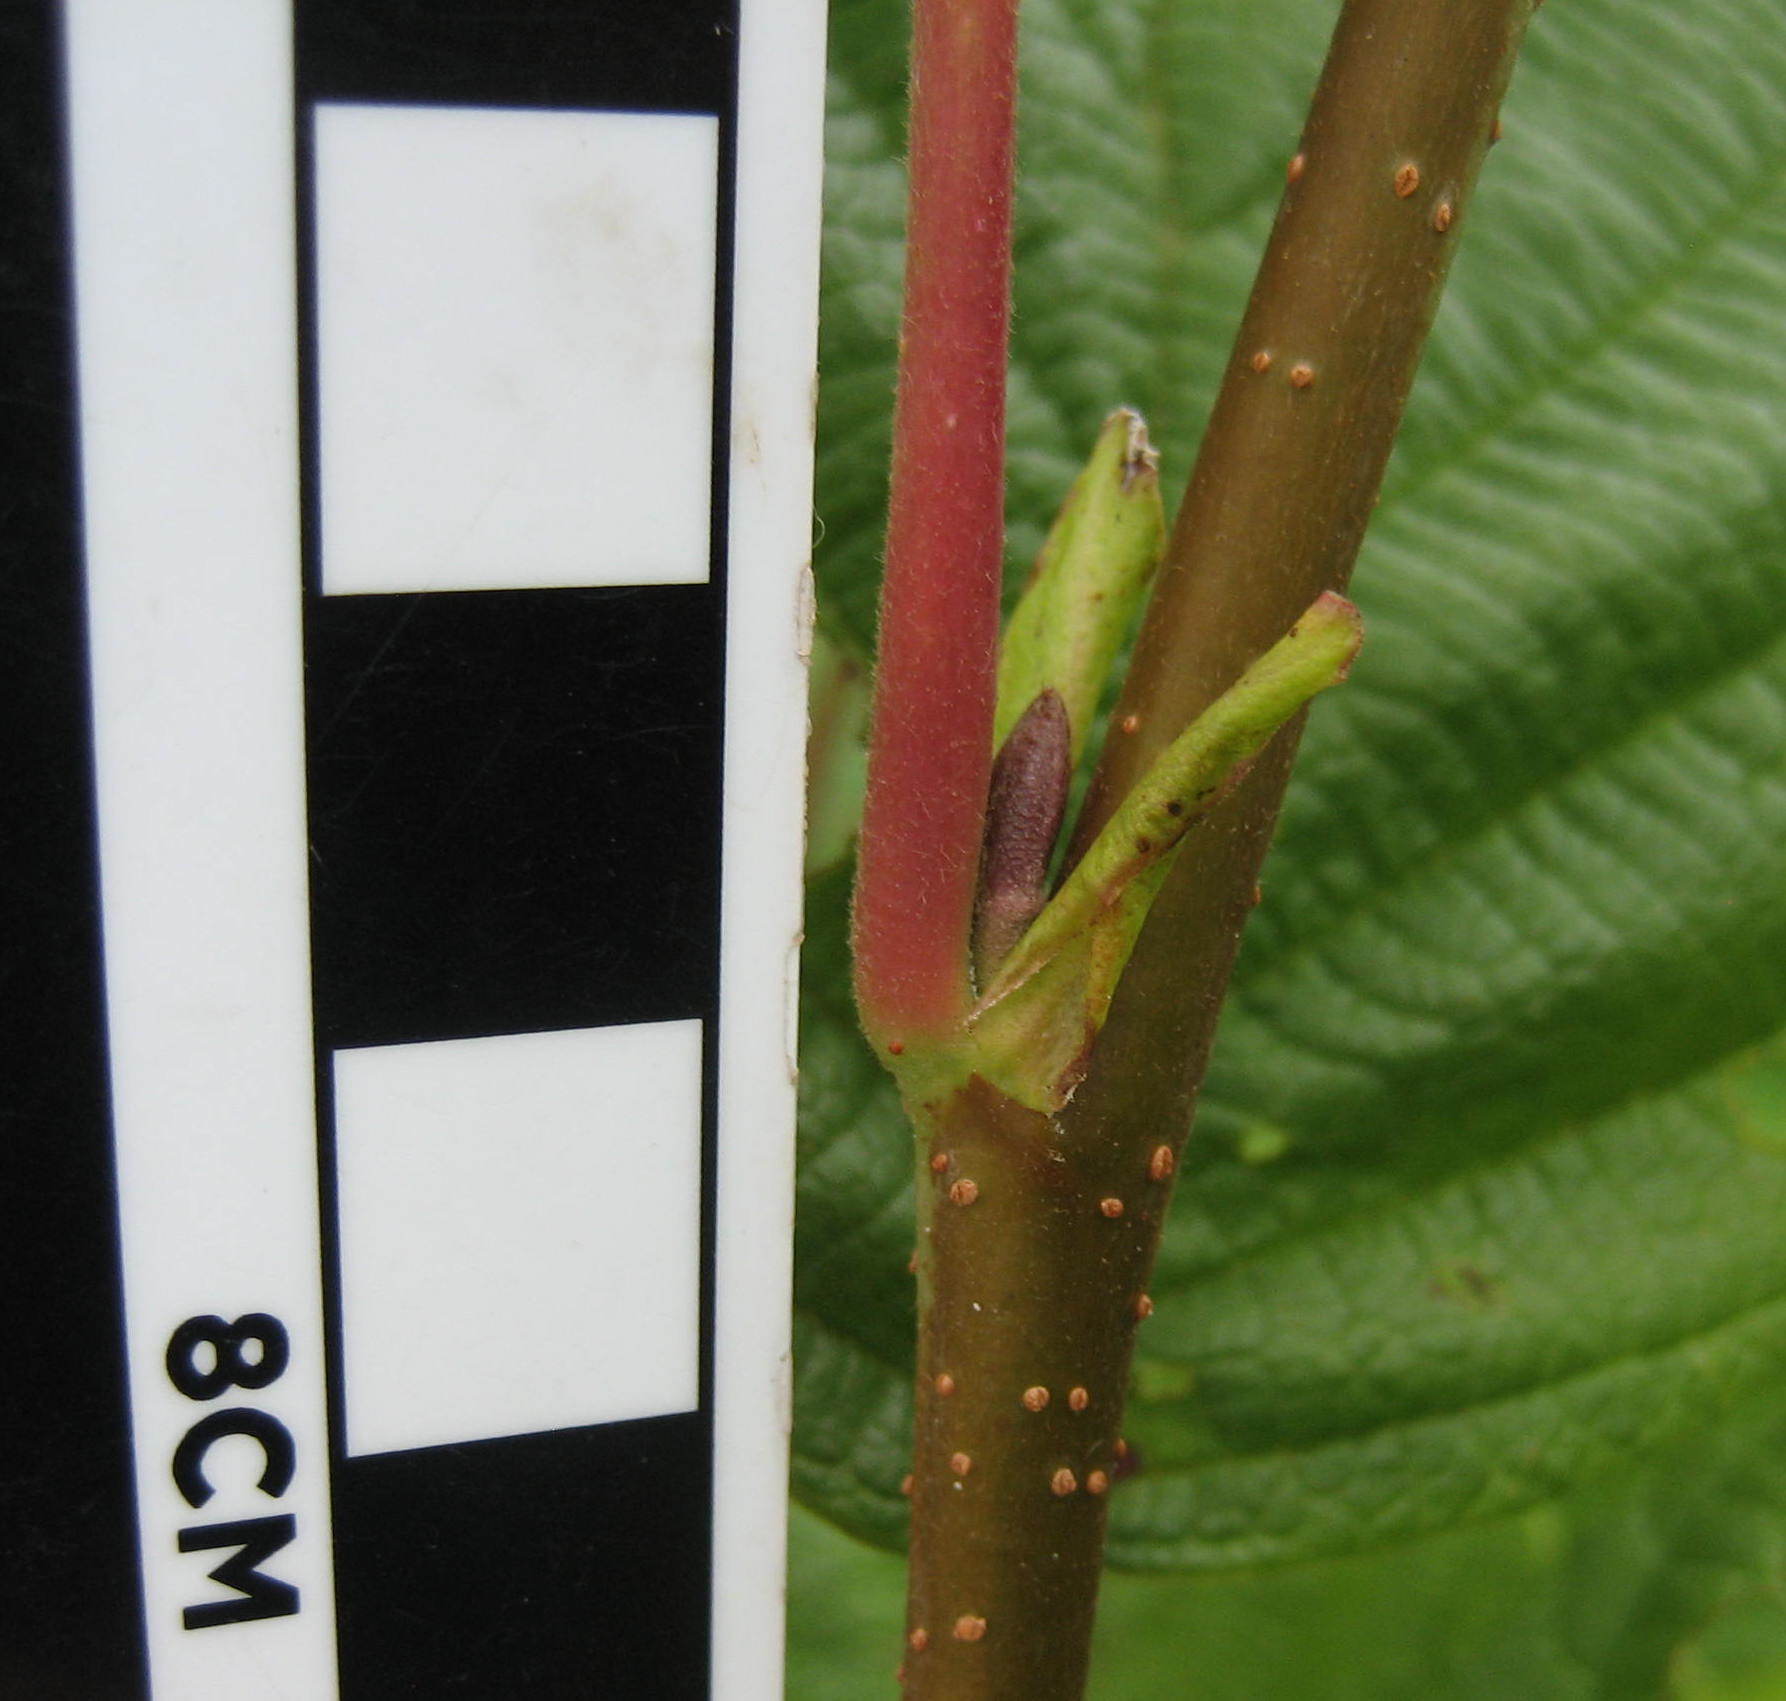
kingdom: Plantae
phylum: Tracheophyta
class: Magnoliopsida
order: Fagales
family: Betulaceae
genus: Alnus
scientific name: Alnus incana
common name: Grey alder
